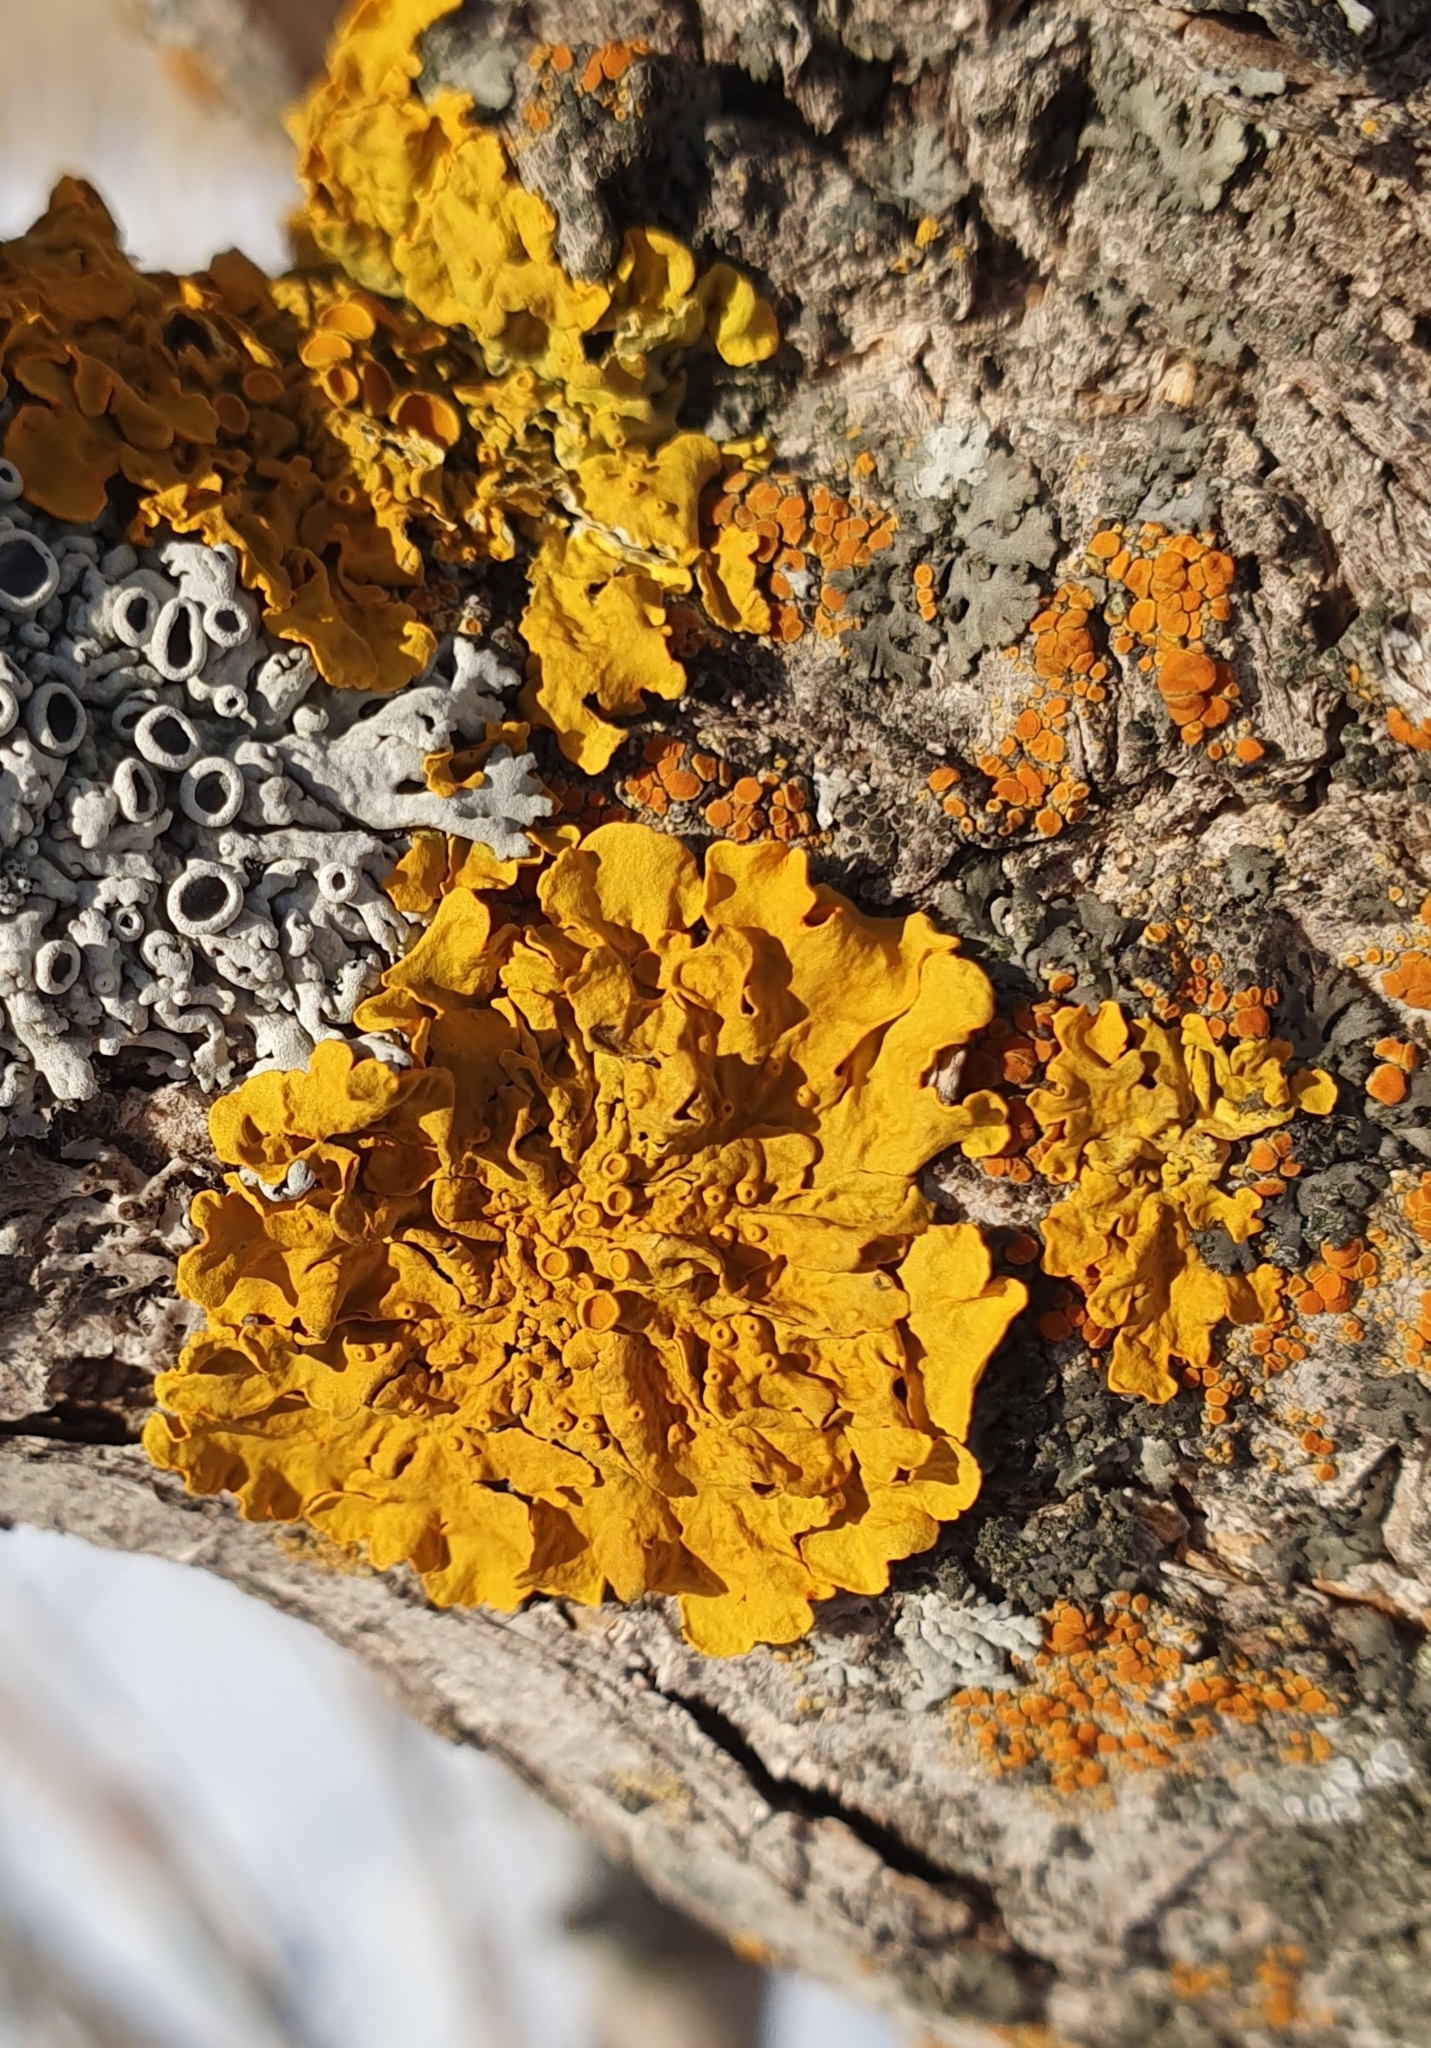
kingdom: Fungi
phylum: Ascomycota
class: Lecanoromycetes
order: Teloschistales
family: Teloschistaceae
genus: Xanthoria
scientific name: Xanthoria parietina
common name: Common orange lichen
